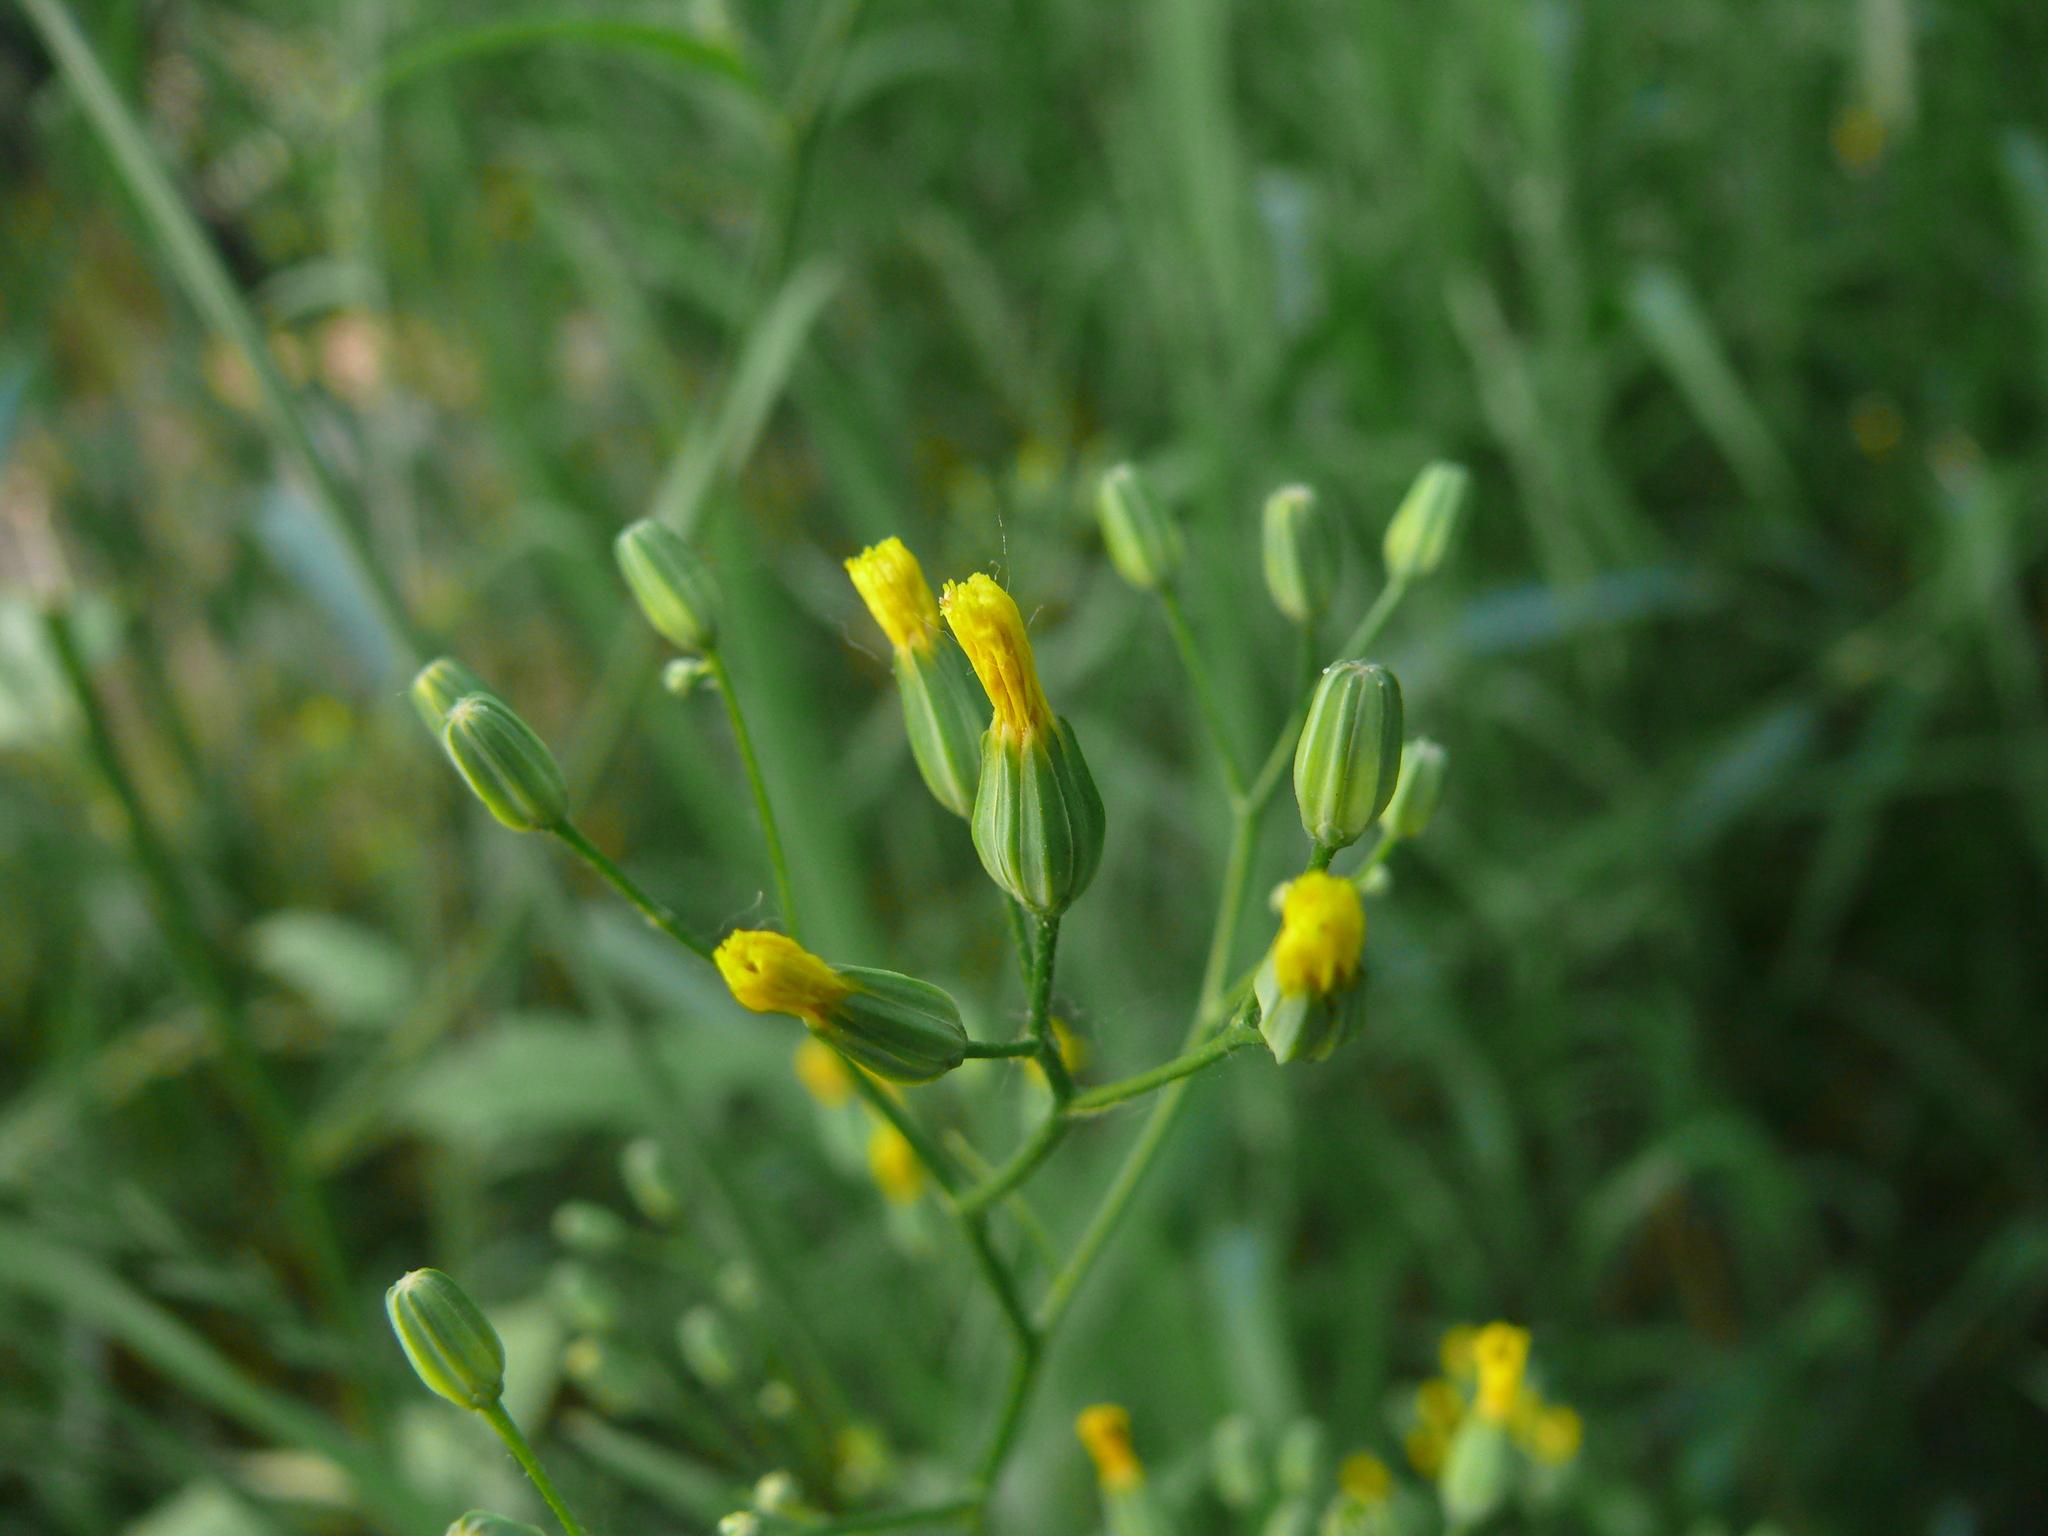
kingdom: Plantae
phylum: Tracheophyta
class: Magnoliopsida
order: Asterales
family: Asteraceae
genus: Lapsana
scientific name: Lapsana communis
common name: Nipplewort
